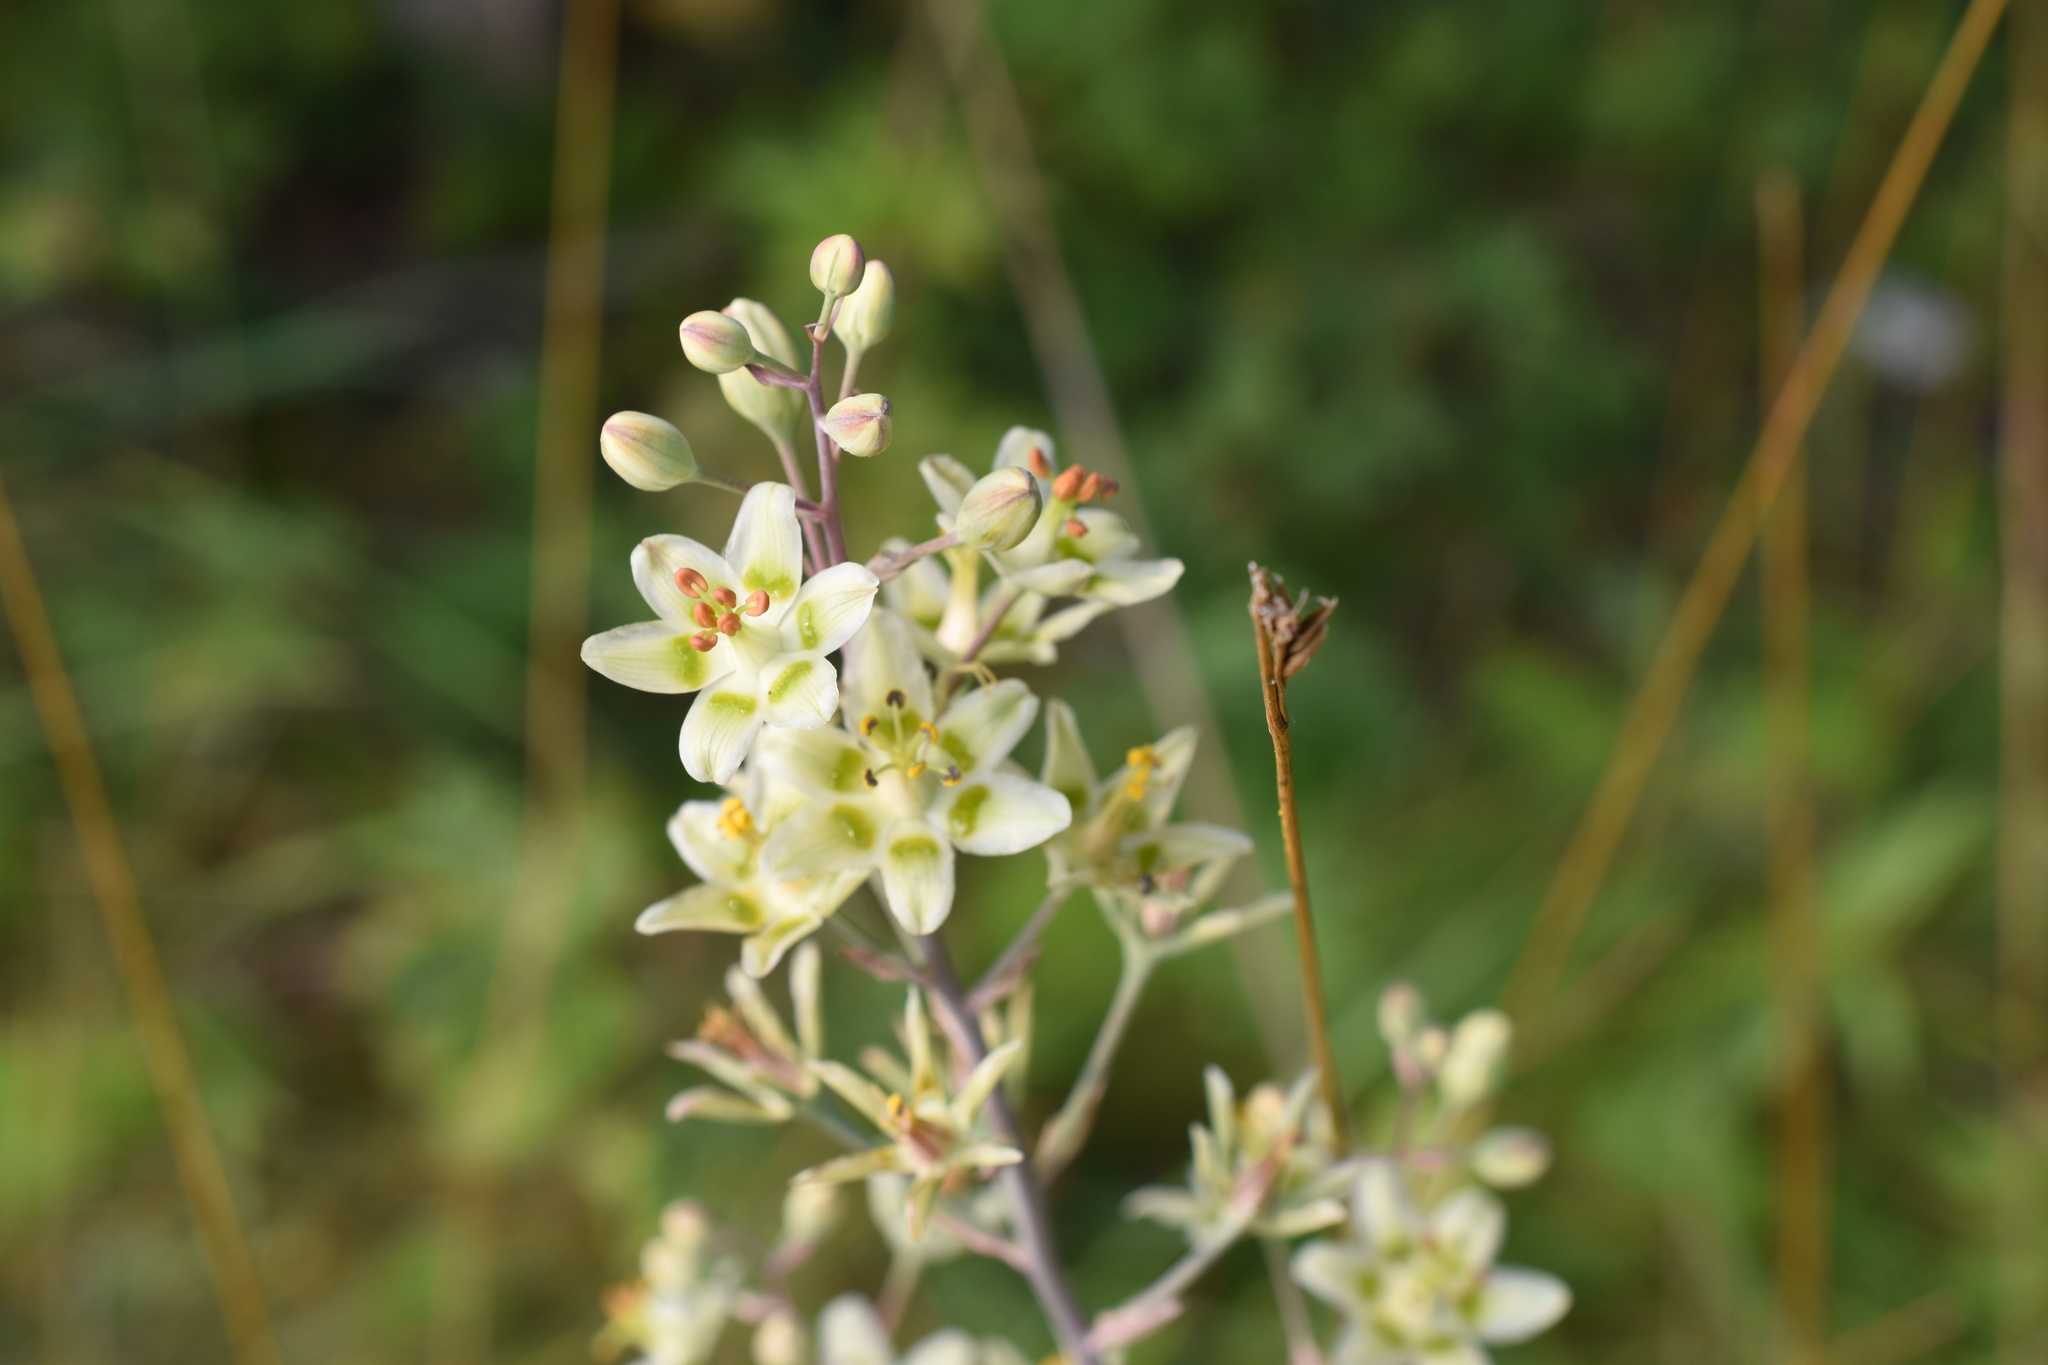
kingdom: Plantae
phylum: Tracheophyta
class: Liliopsida
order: Liliales
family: Melanthiaceae
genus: Anticlea
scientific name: Anticlea elegans
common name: Mountain death camas
